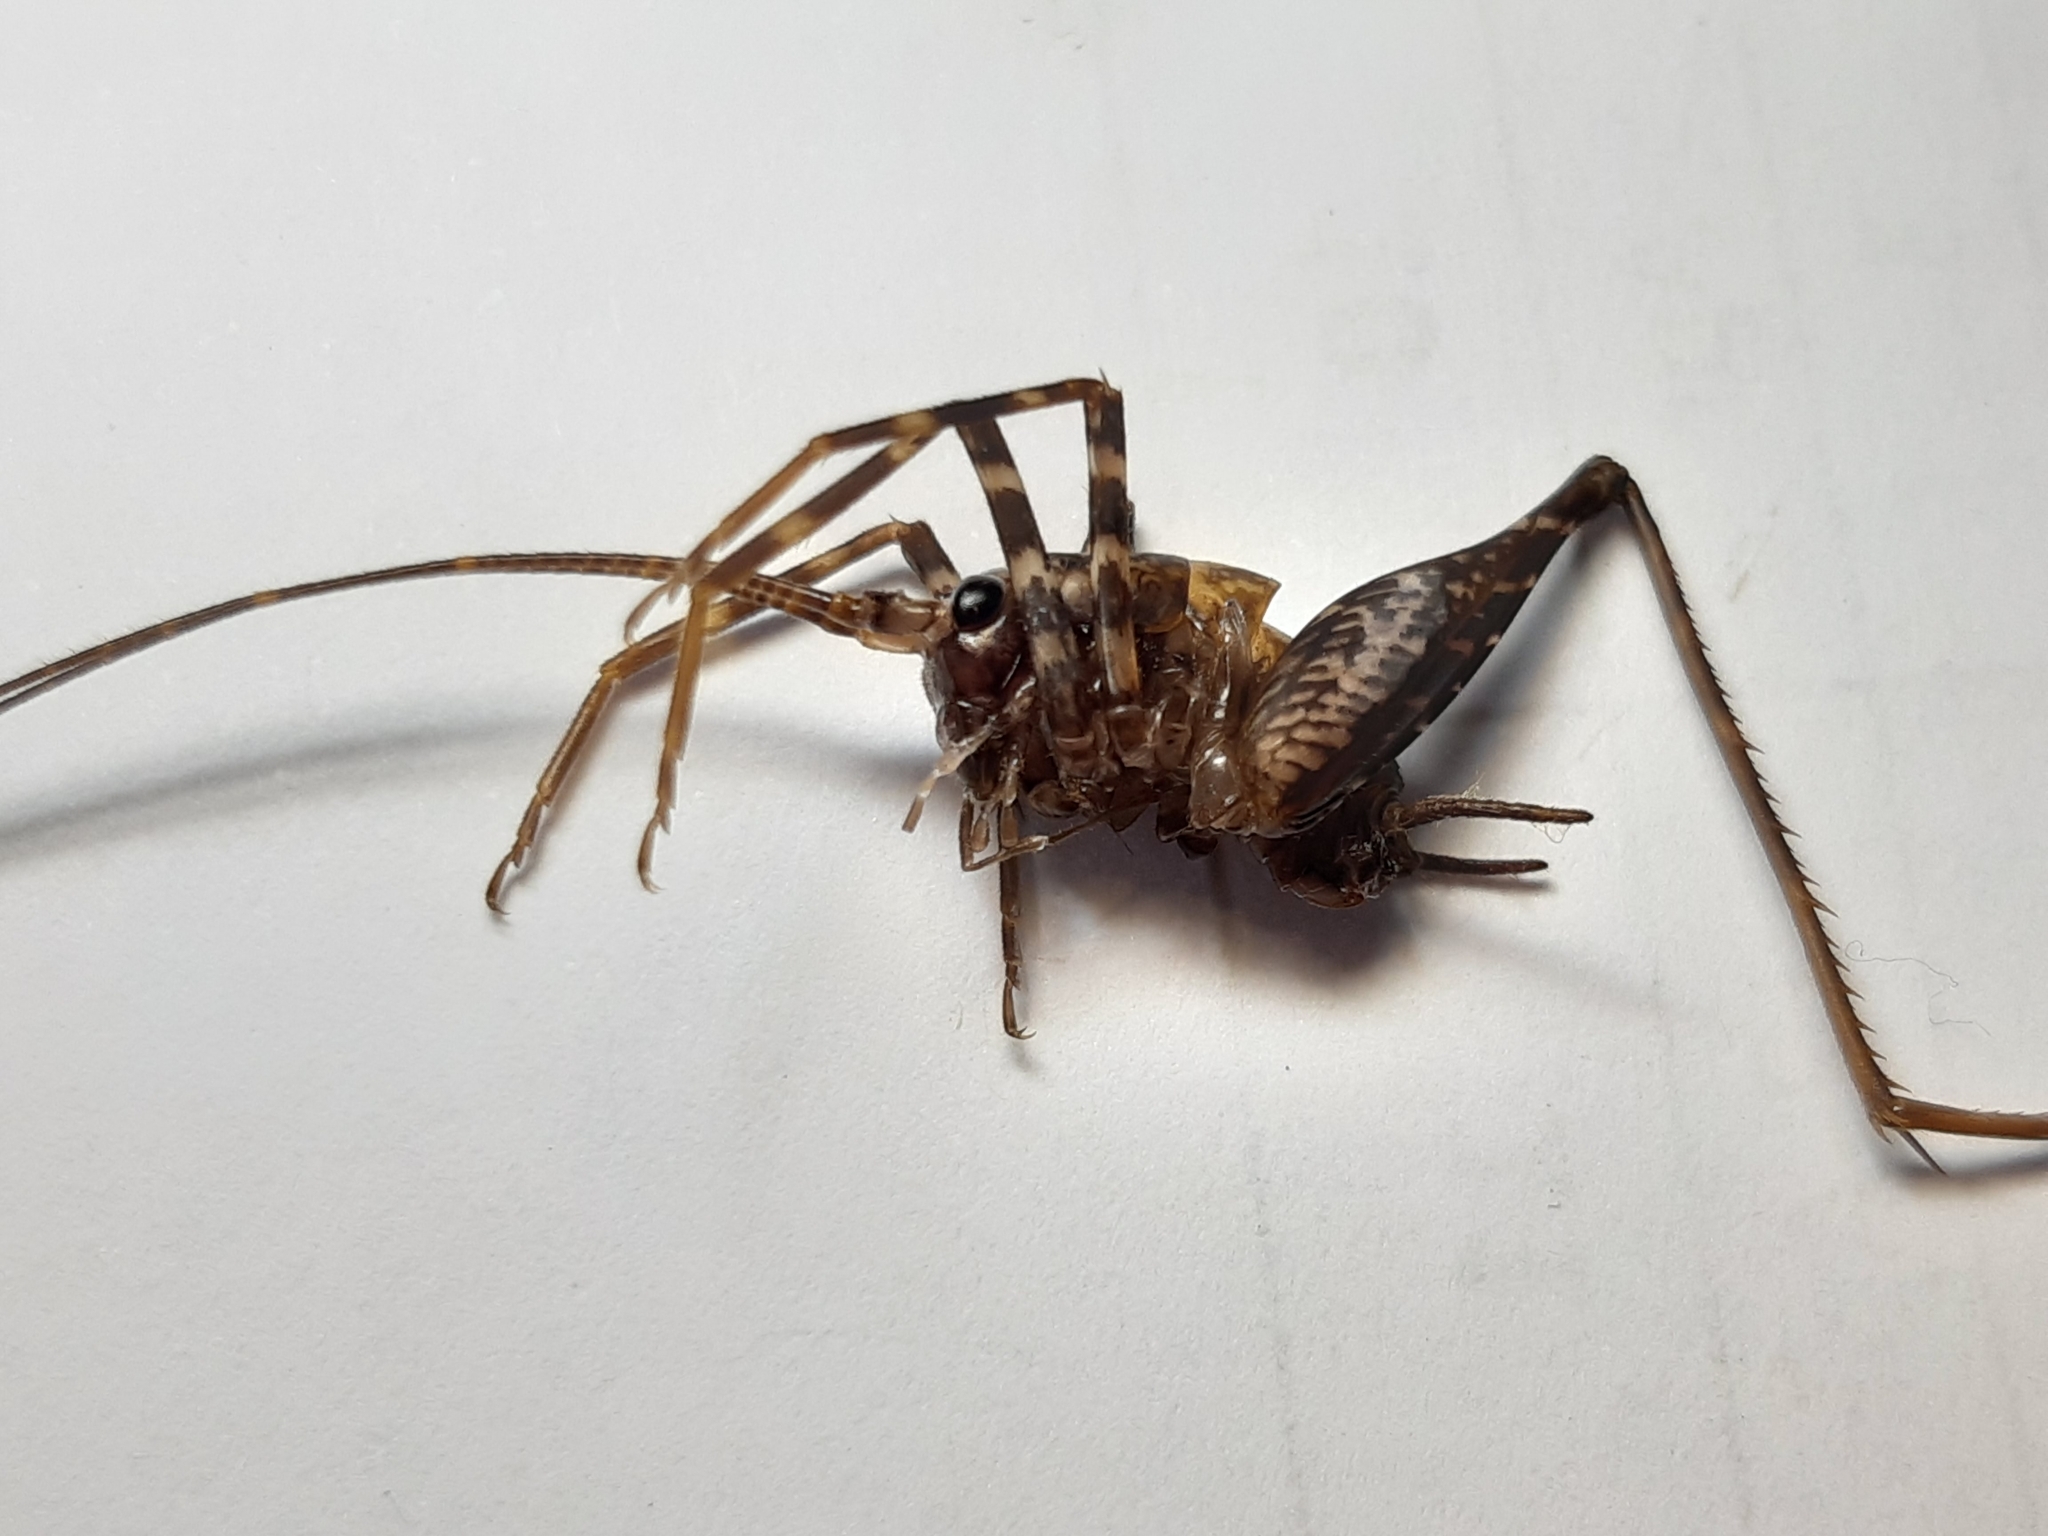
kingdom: Animalia
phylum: Arthropoda
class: Insecta
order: Orthoptera
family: Rhaphidophoridae
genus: Pleioplectron
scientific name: Pleioplectron gubernator
